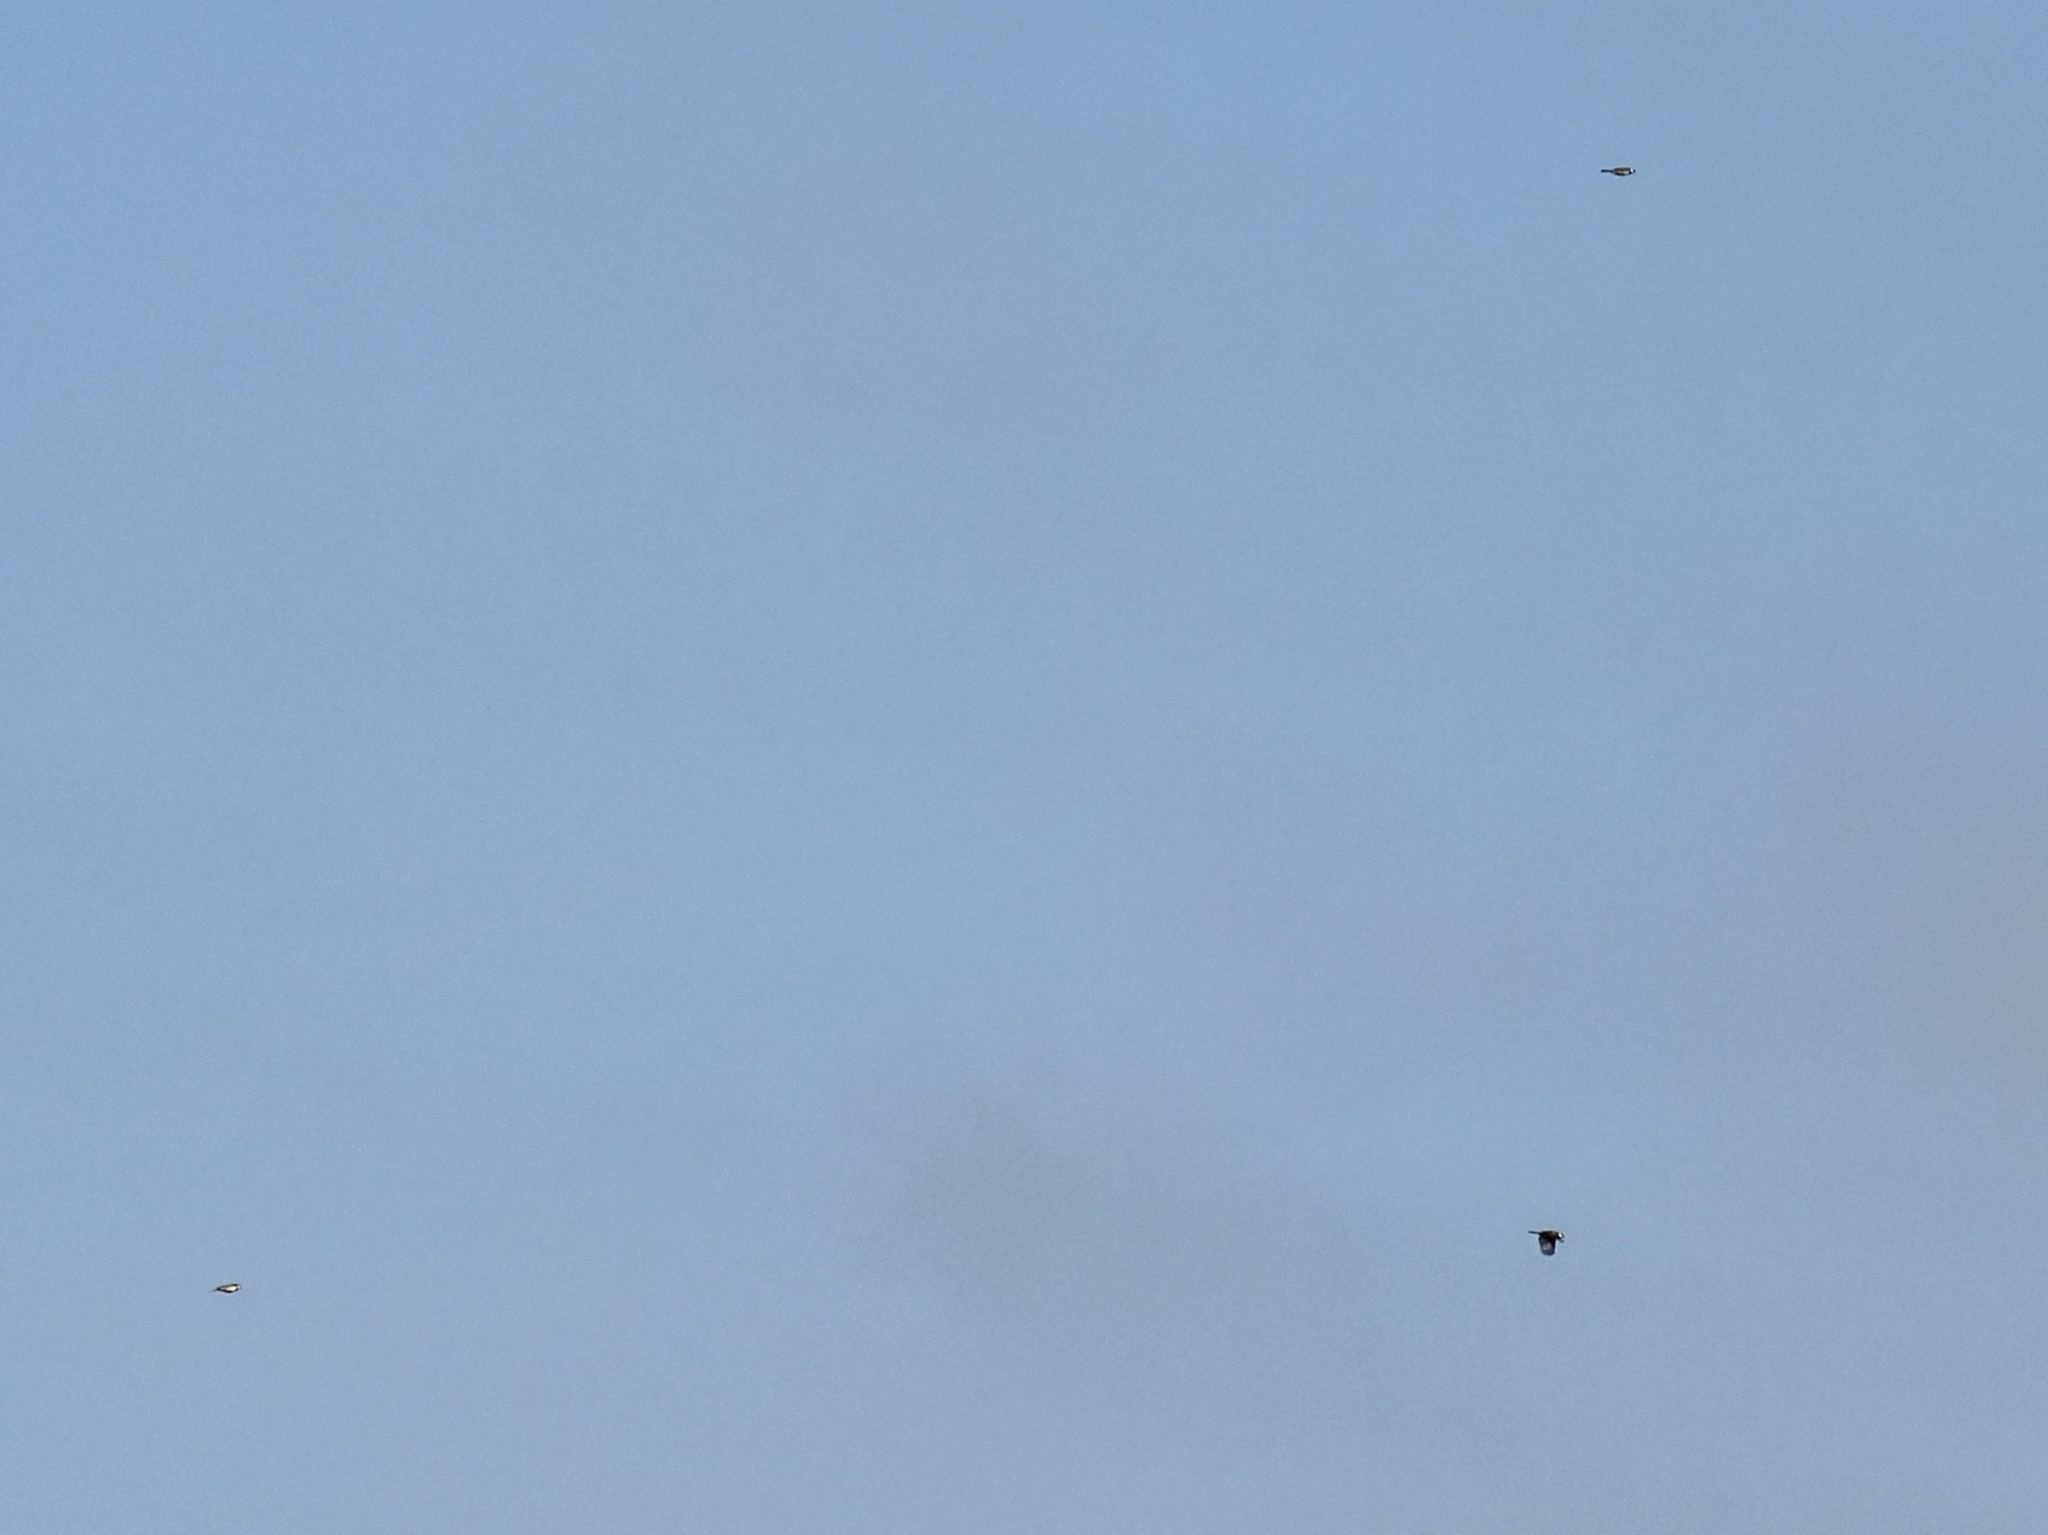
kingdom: Animalia
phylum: Chordata
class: Aves
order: Passeriformes
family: Paridae
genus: Parus
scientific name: Parus major
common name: Great tit
